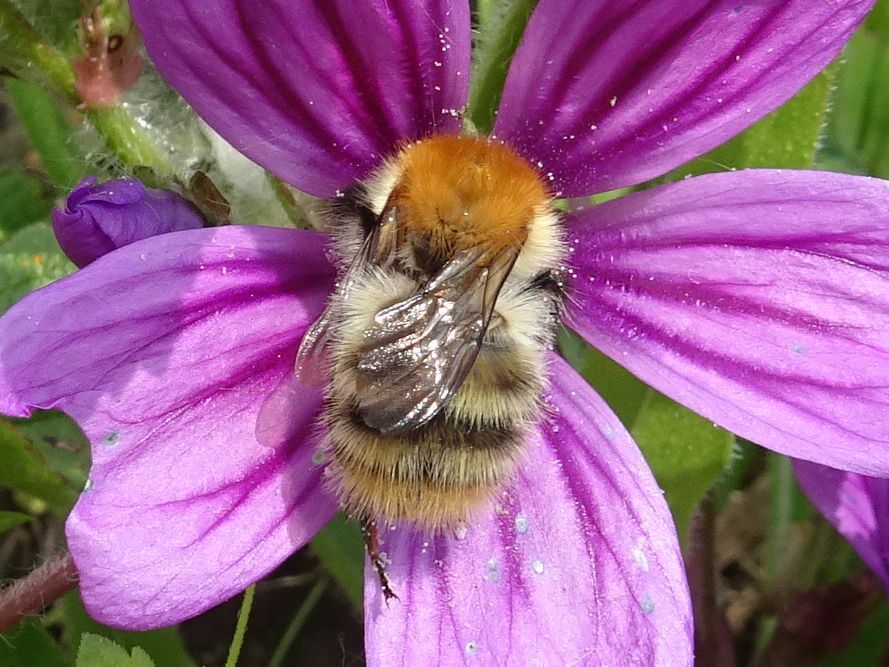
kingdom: Animalia
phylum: Arthropoda
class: Insecta
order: Hymenoptera
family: Apidae
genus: Bombus
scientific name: Bombus pascuorum
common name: Common carder bee
